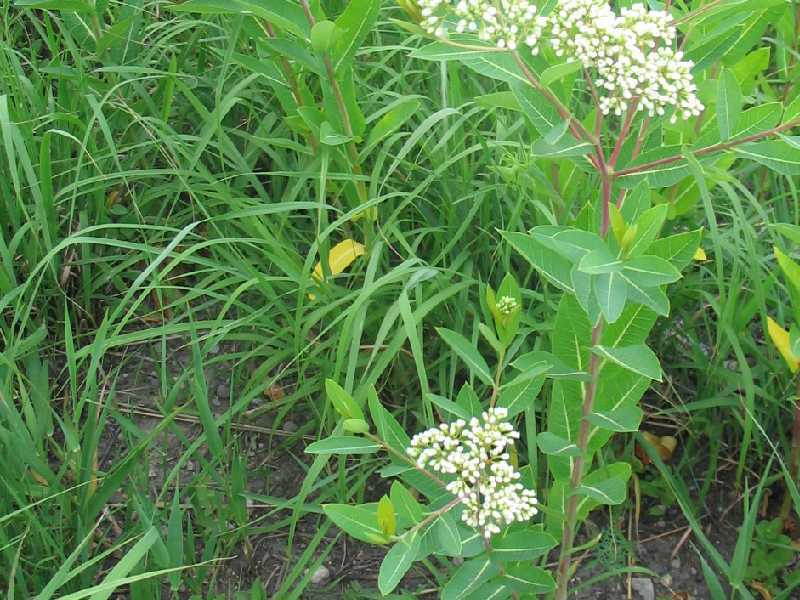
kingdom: Plantae
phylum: Tracheophyta
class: Magnoliopsida
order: Gentianales
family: Apocynaceae
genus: Apocynum
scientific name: Apocynum cannabinum
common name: Hemp dogbane
